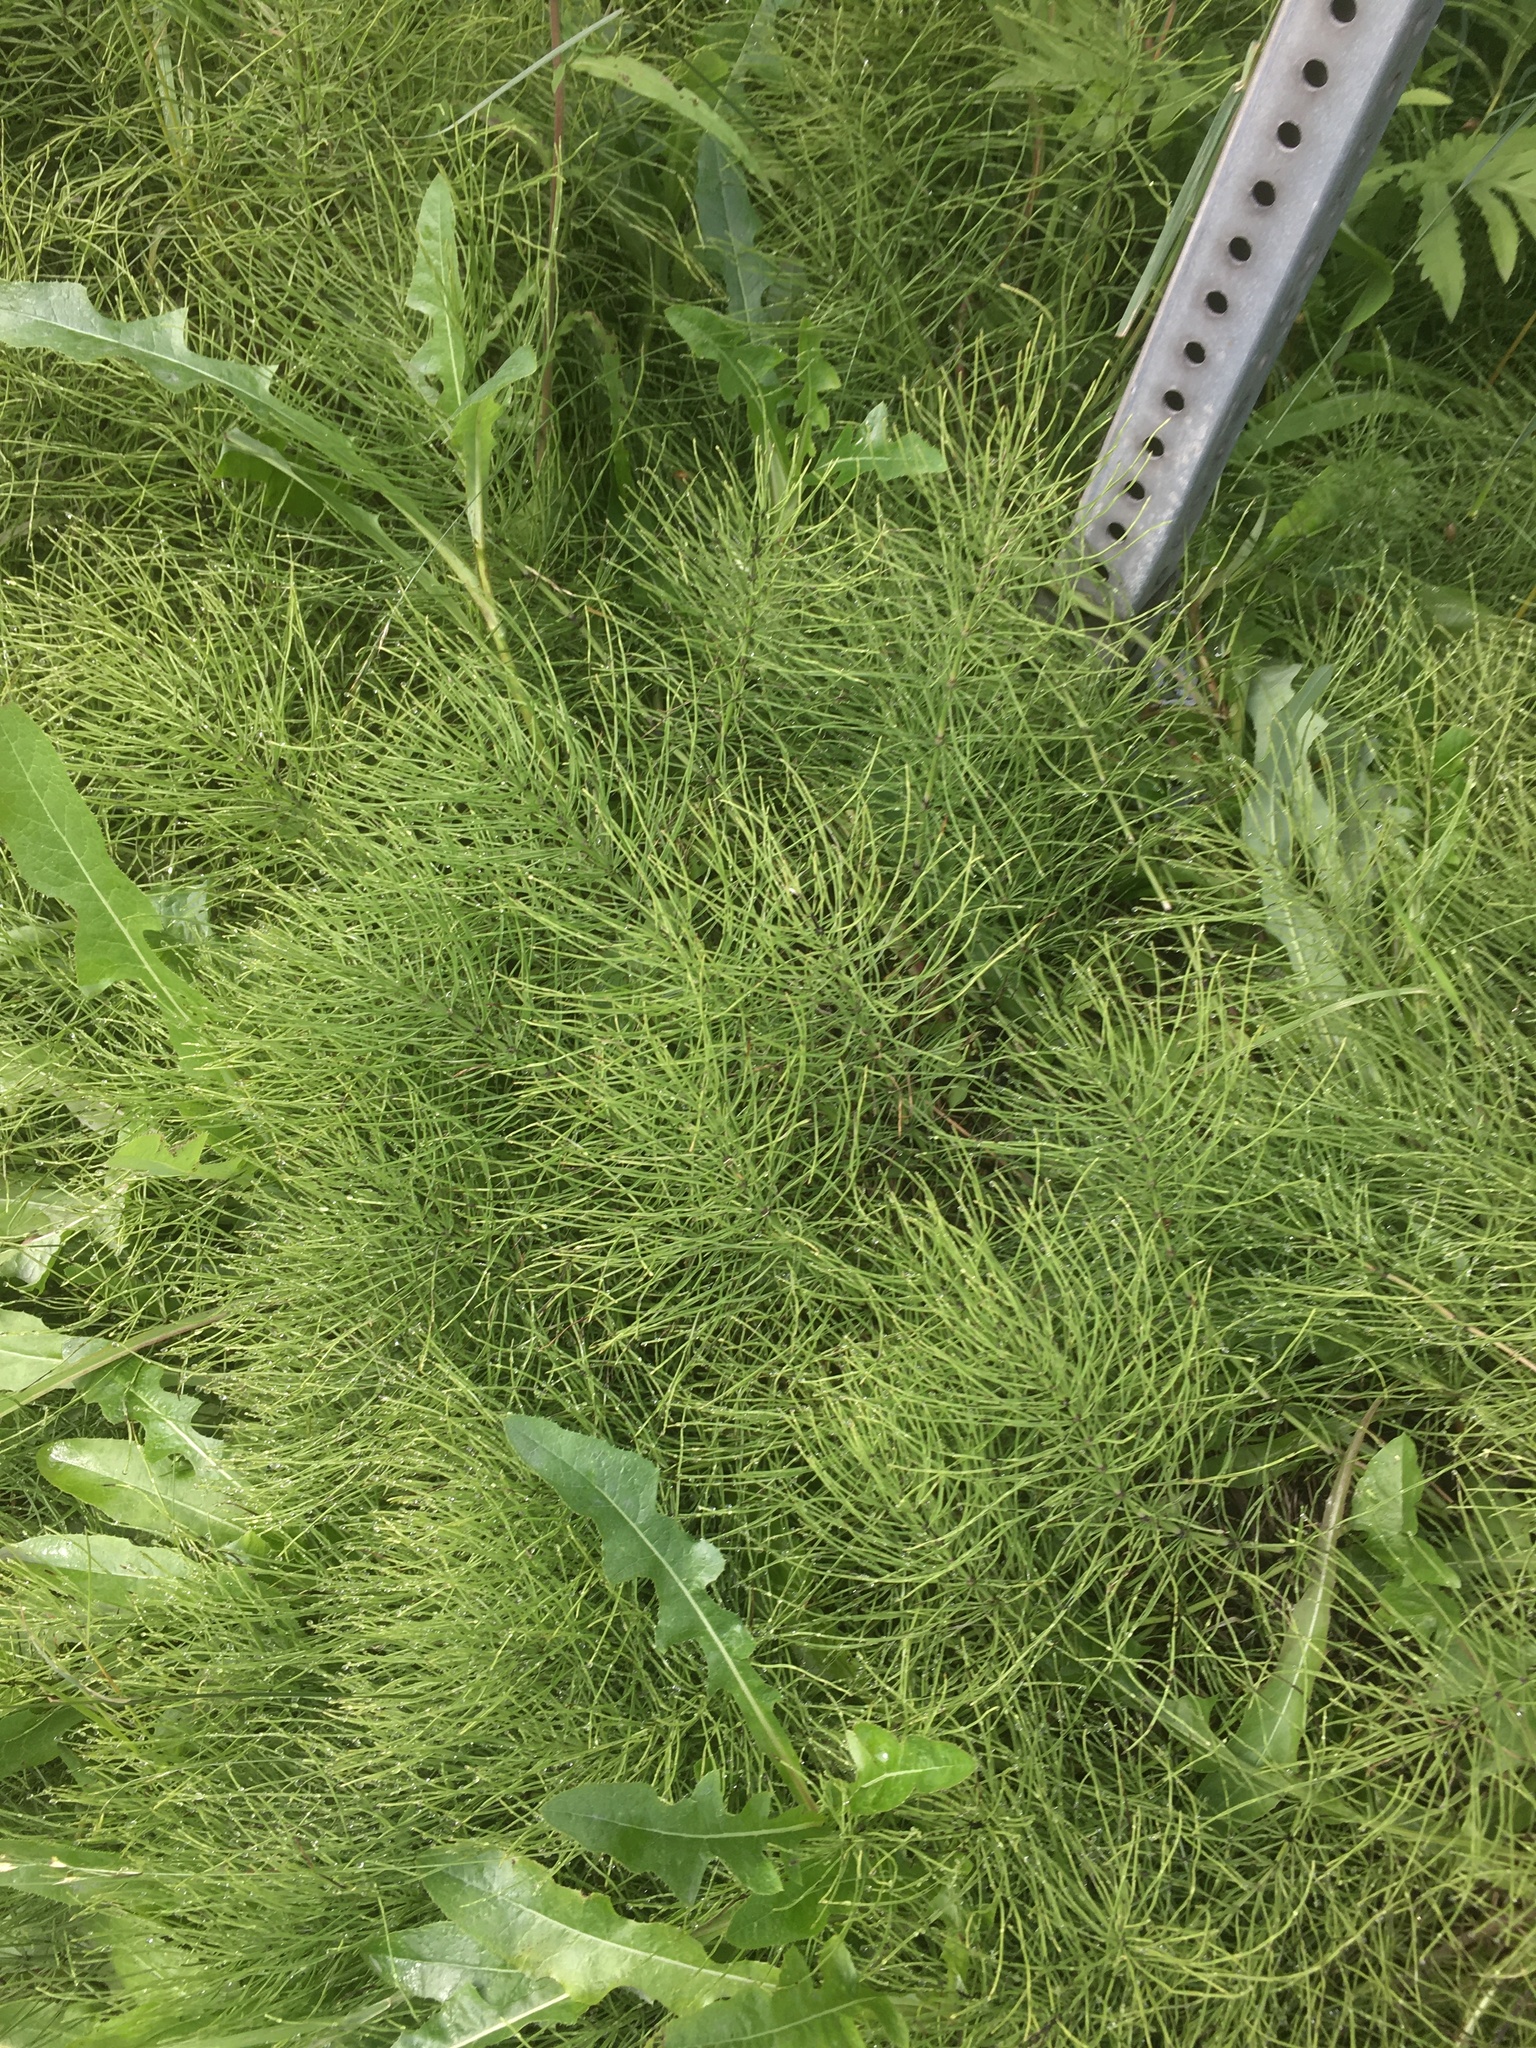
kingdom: Plantae
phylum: Tracheophyta
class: Polypodiopsida
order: Equisetales
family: Equisetaceae
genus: Equisetum
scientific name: Equisetum arvense
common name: Field horsetail
